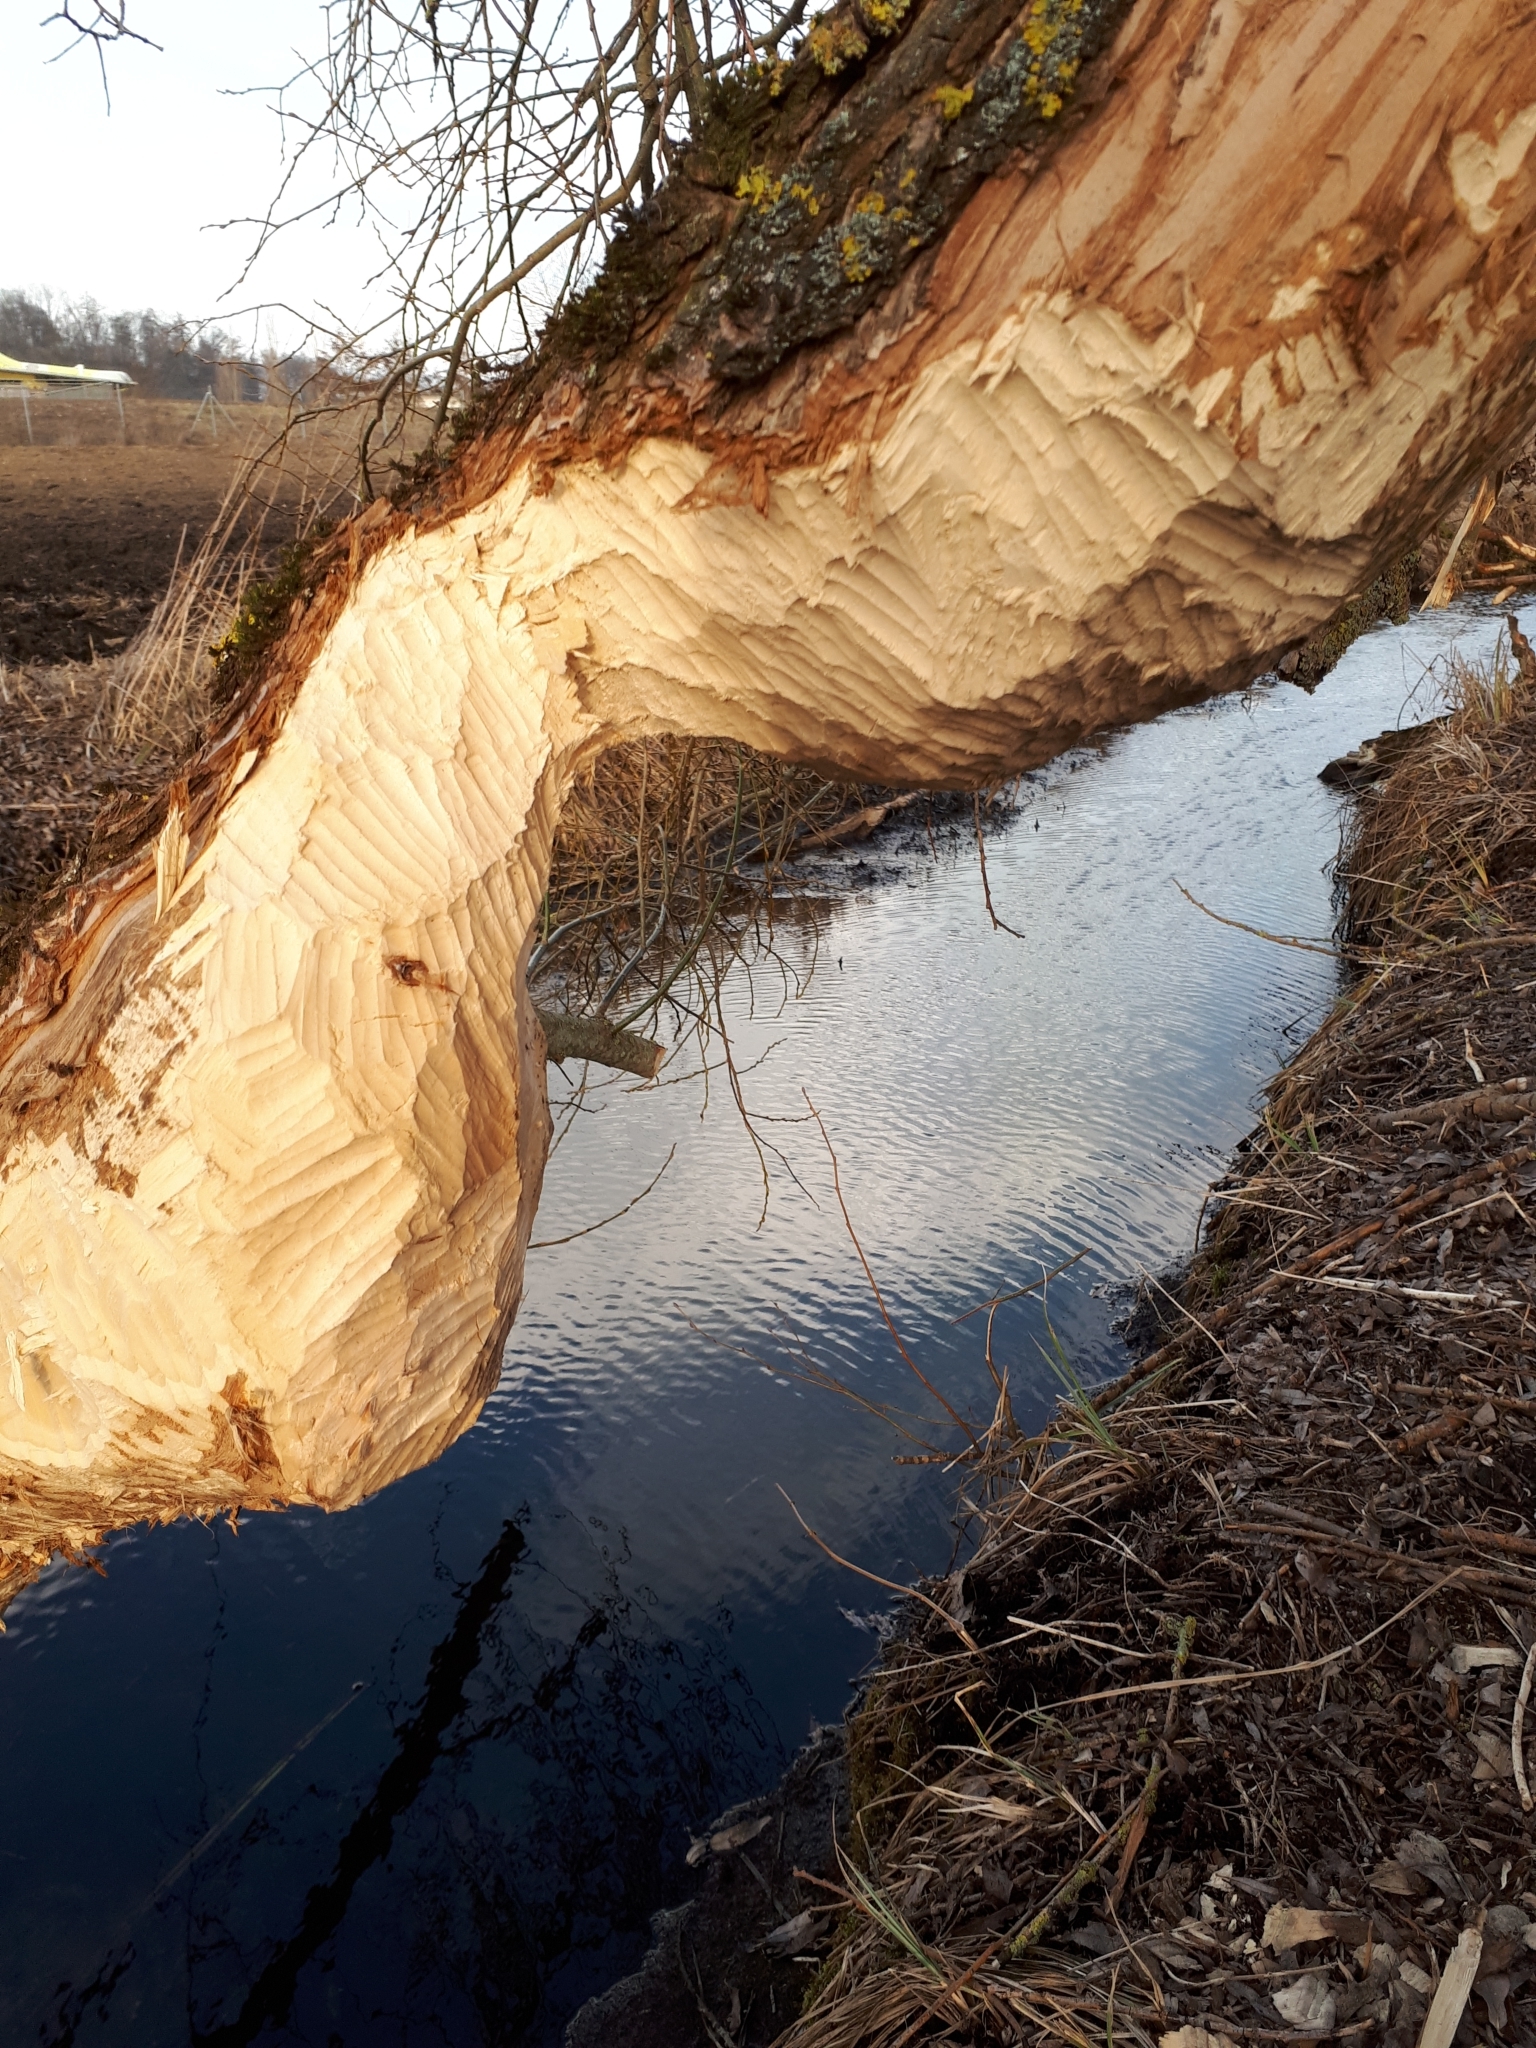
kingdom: Animalia
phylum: Chordata
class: Mammalia
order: Rodentia
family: Castoridae
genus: Castor
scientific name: Castor fiber
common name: Eurasian beaver
